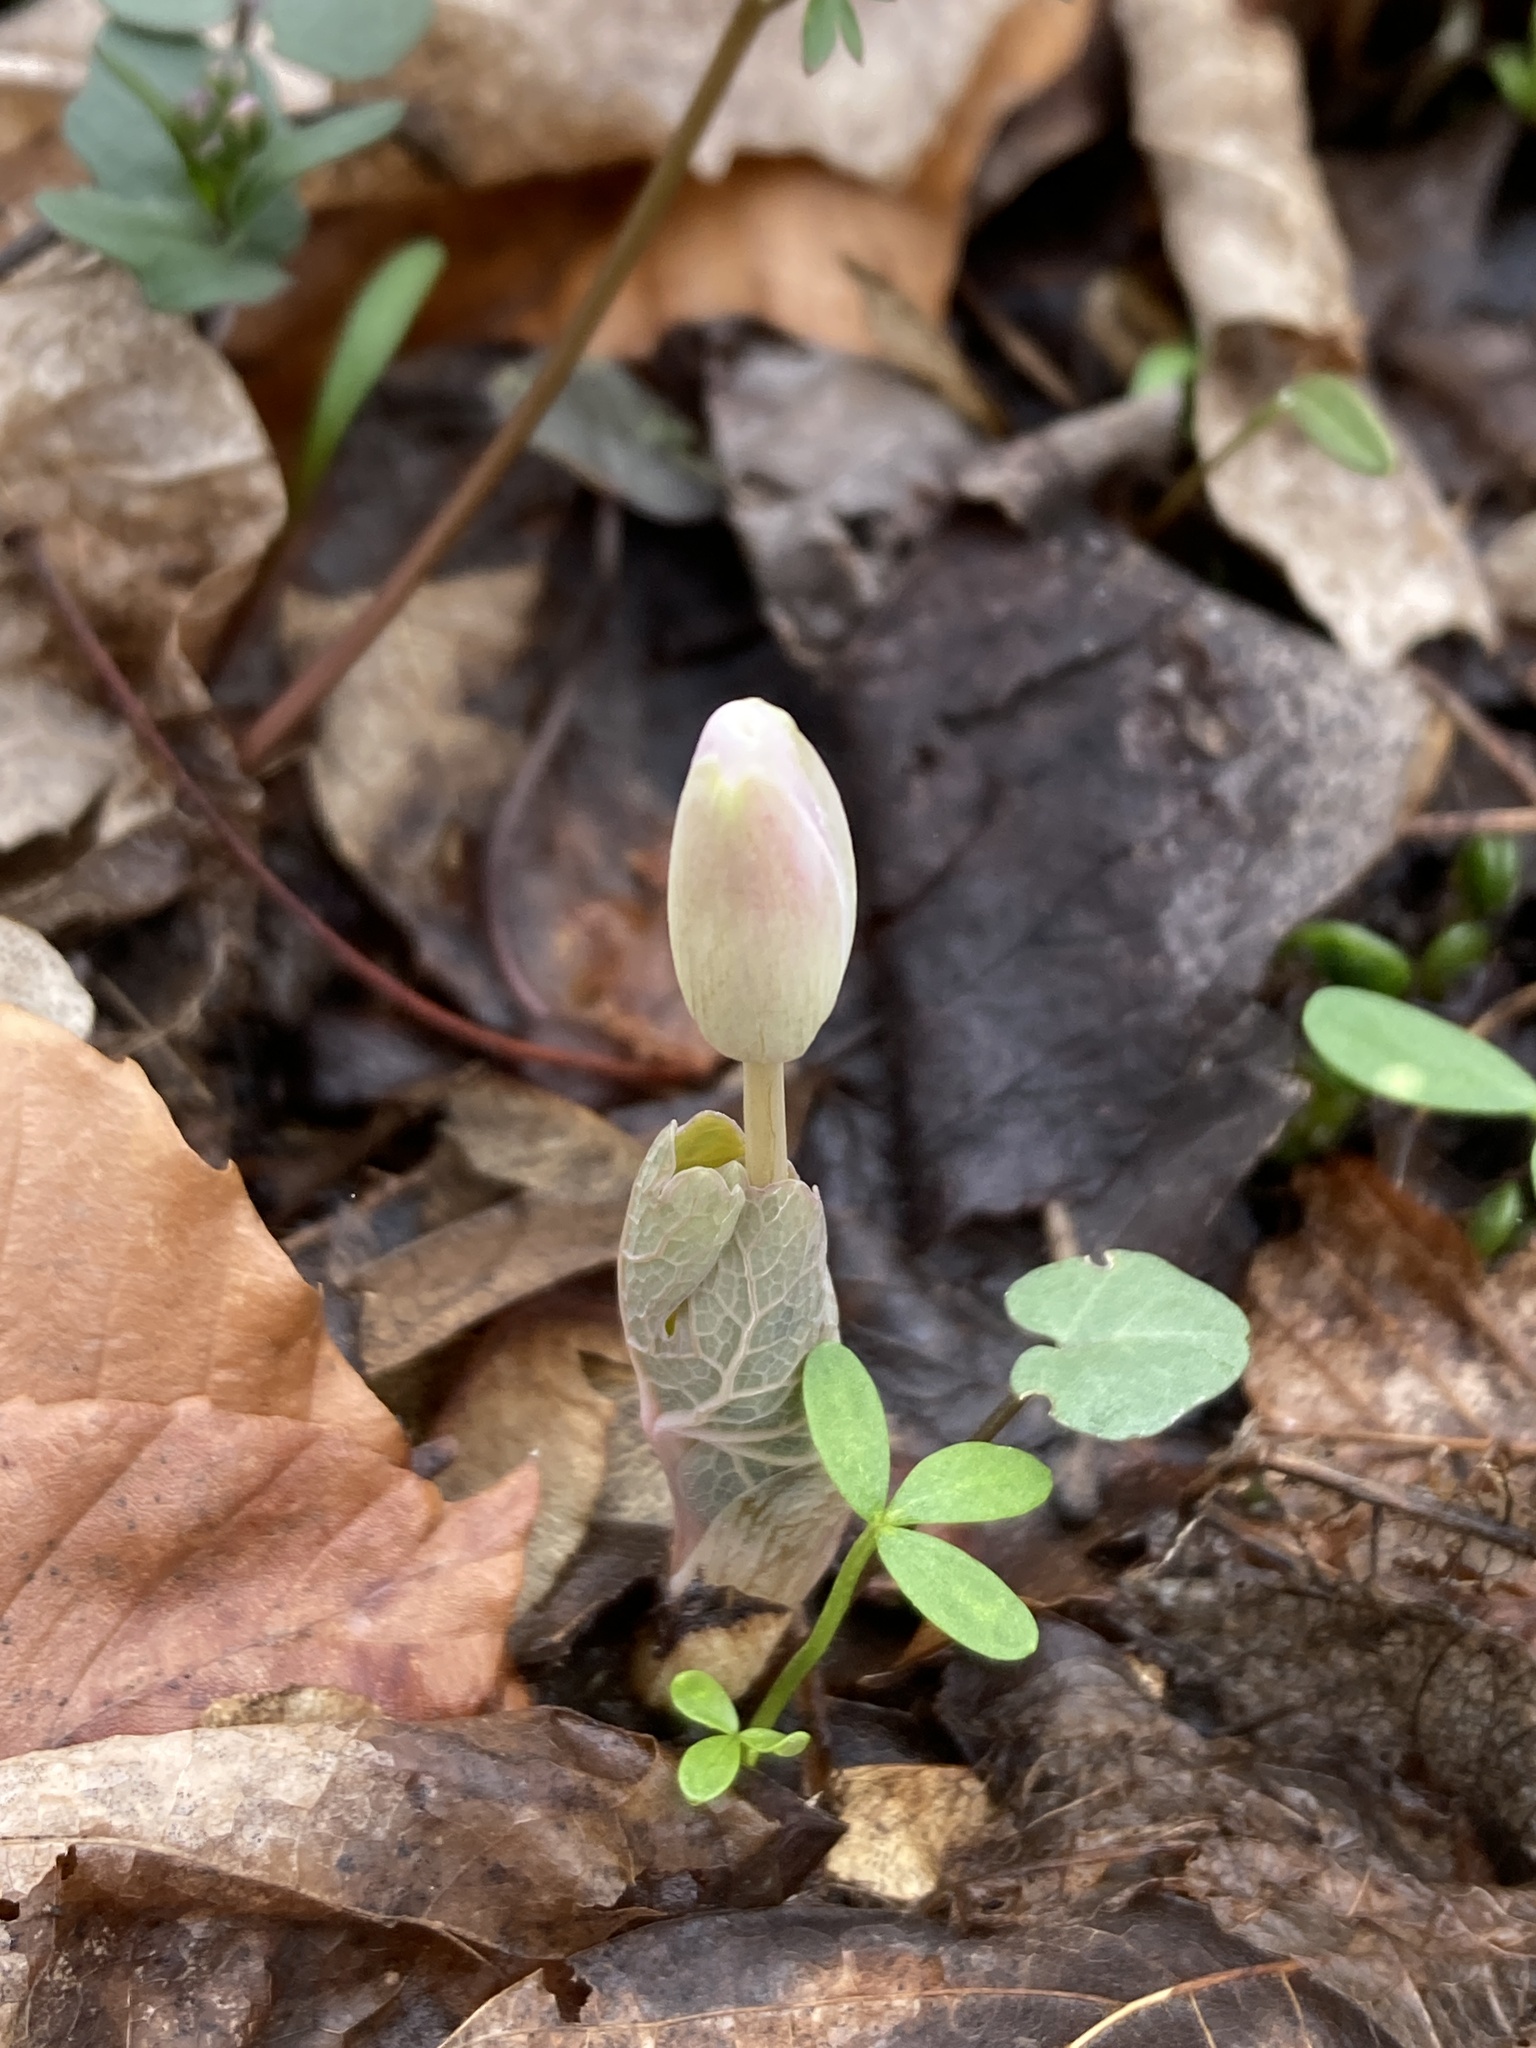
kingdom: Plantae
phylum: Tracheophyta
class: Magnoliopsida
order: Ranunculales
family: Papaveraceae
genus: Sanguinaria
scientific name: Sanguinaria canadensis
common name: Bloodroot
